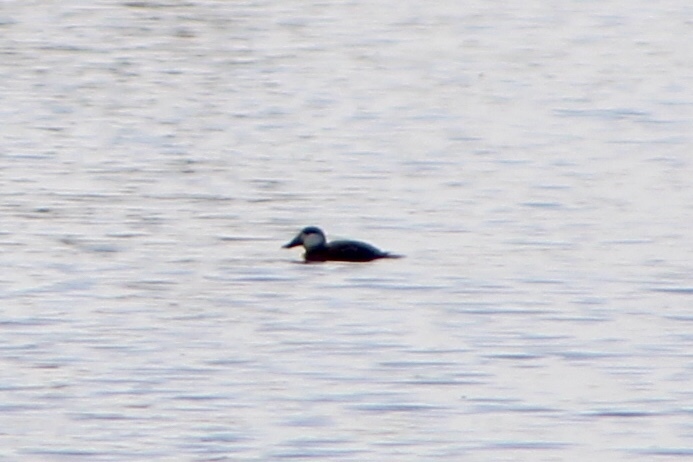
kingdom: Animalia
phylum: Chordata
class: Aves
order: Anseriformes
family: Anatidae
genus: Oxyura
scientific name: Oxyura jamaicensis
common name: Ruddy duck
